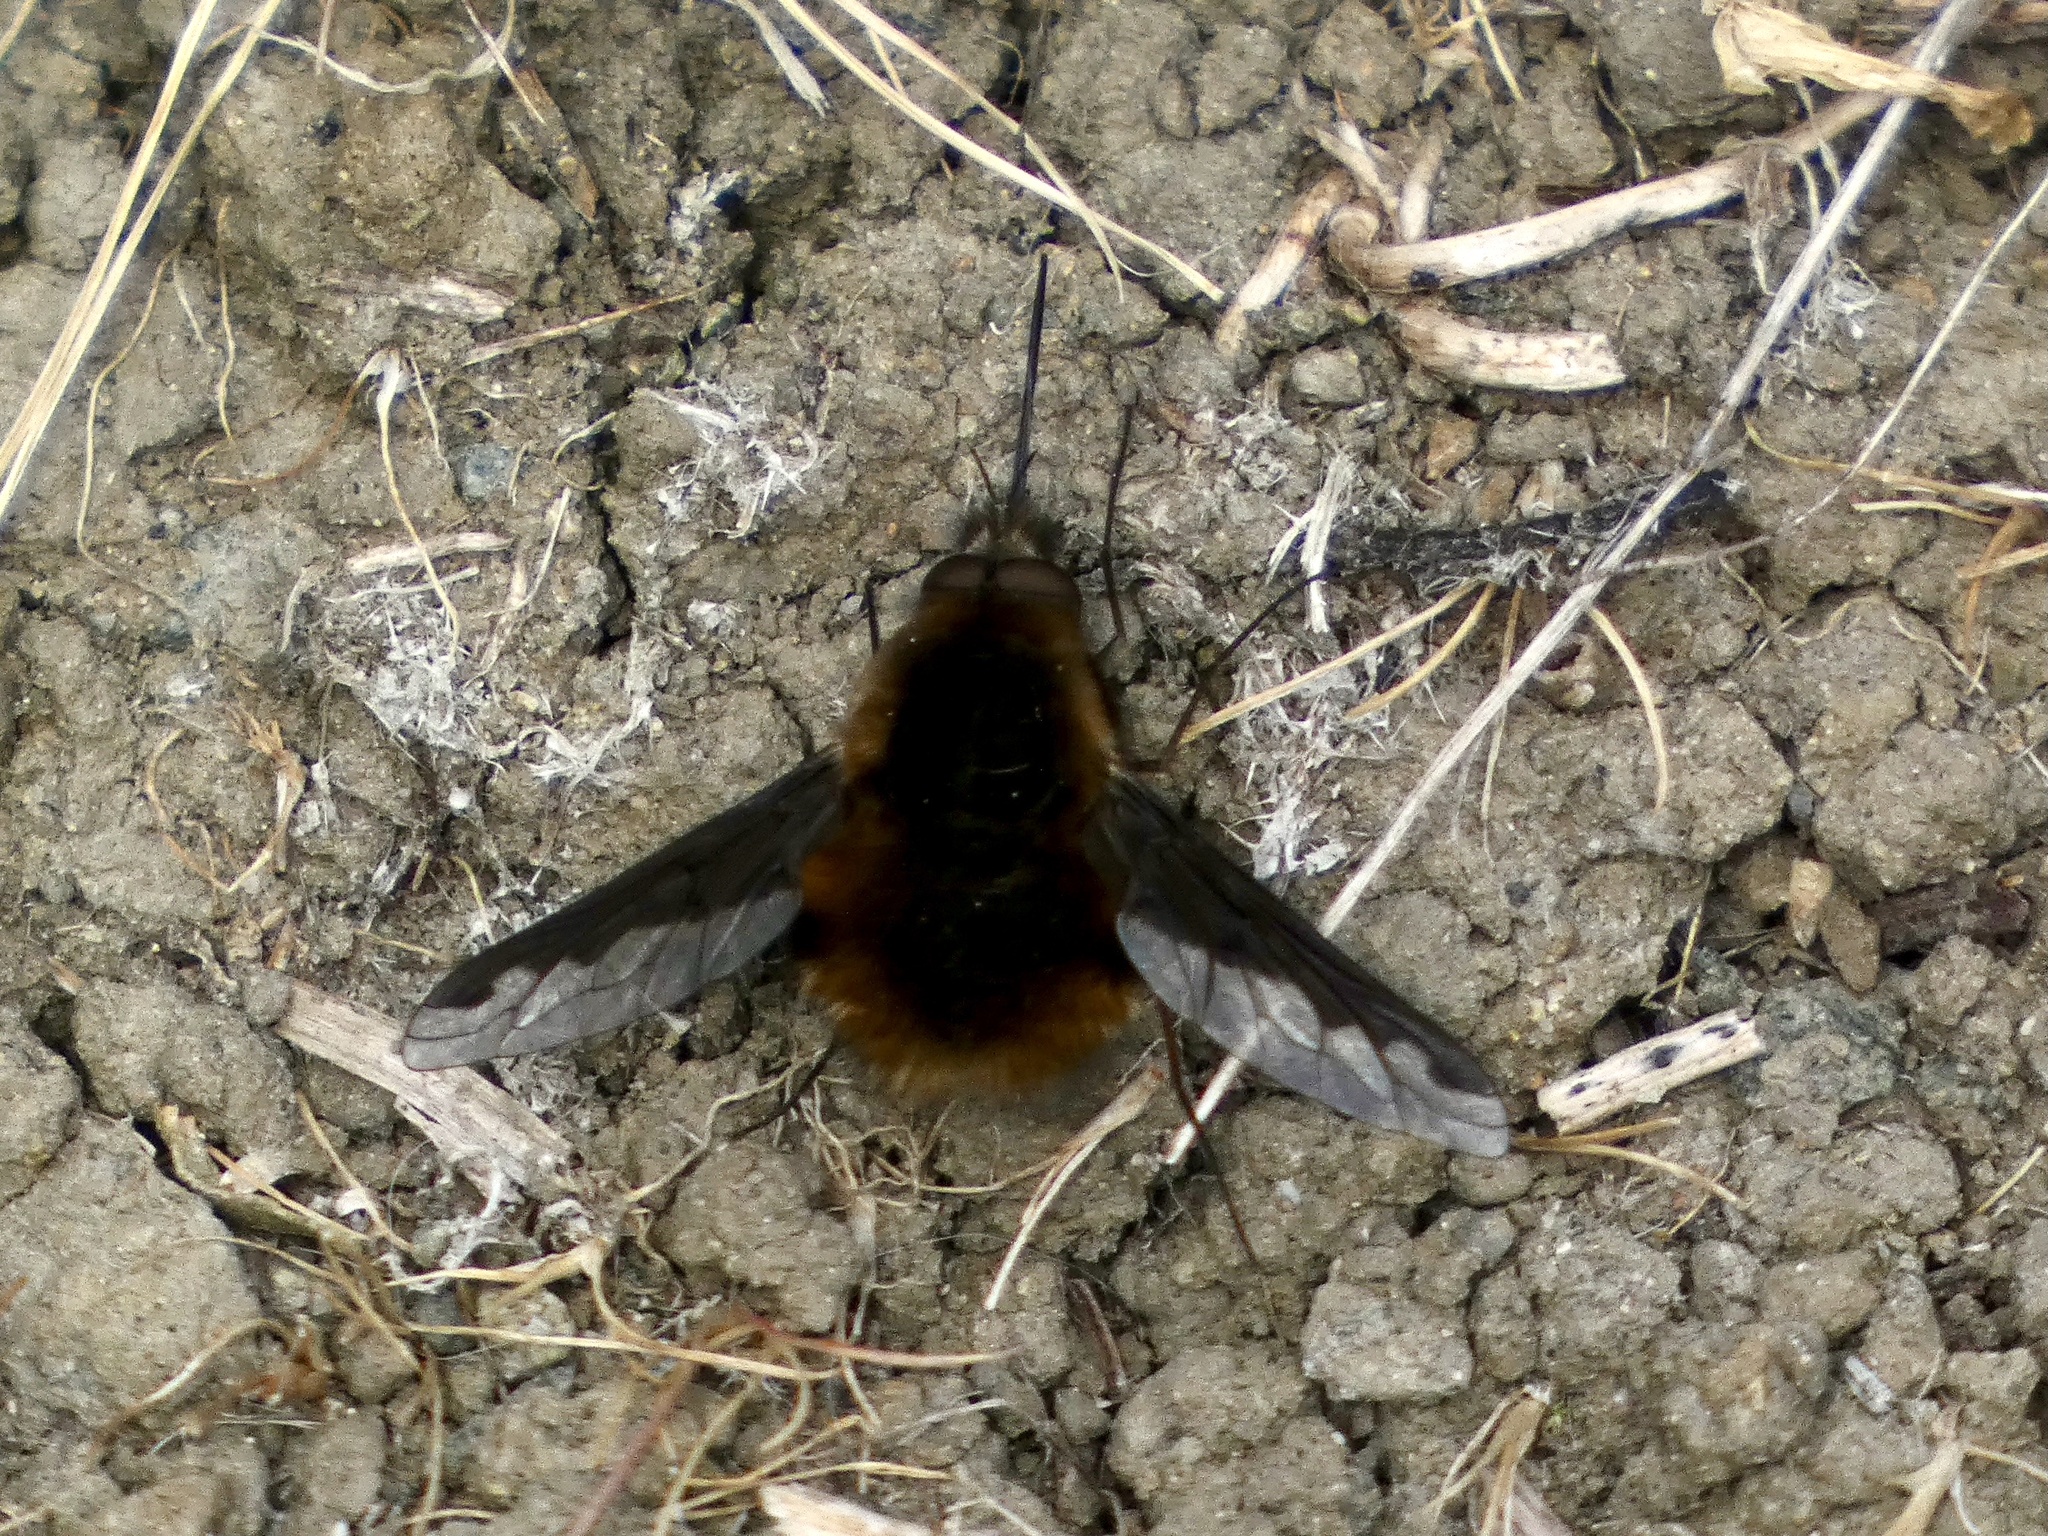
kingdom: Animalia
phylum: Arthropoda
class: Insecta
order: Diptera
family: Bombyliidae
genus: Bombylius
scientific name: Bombylius major
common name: Bee fly
